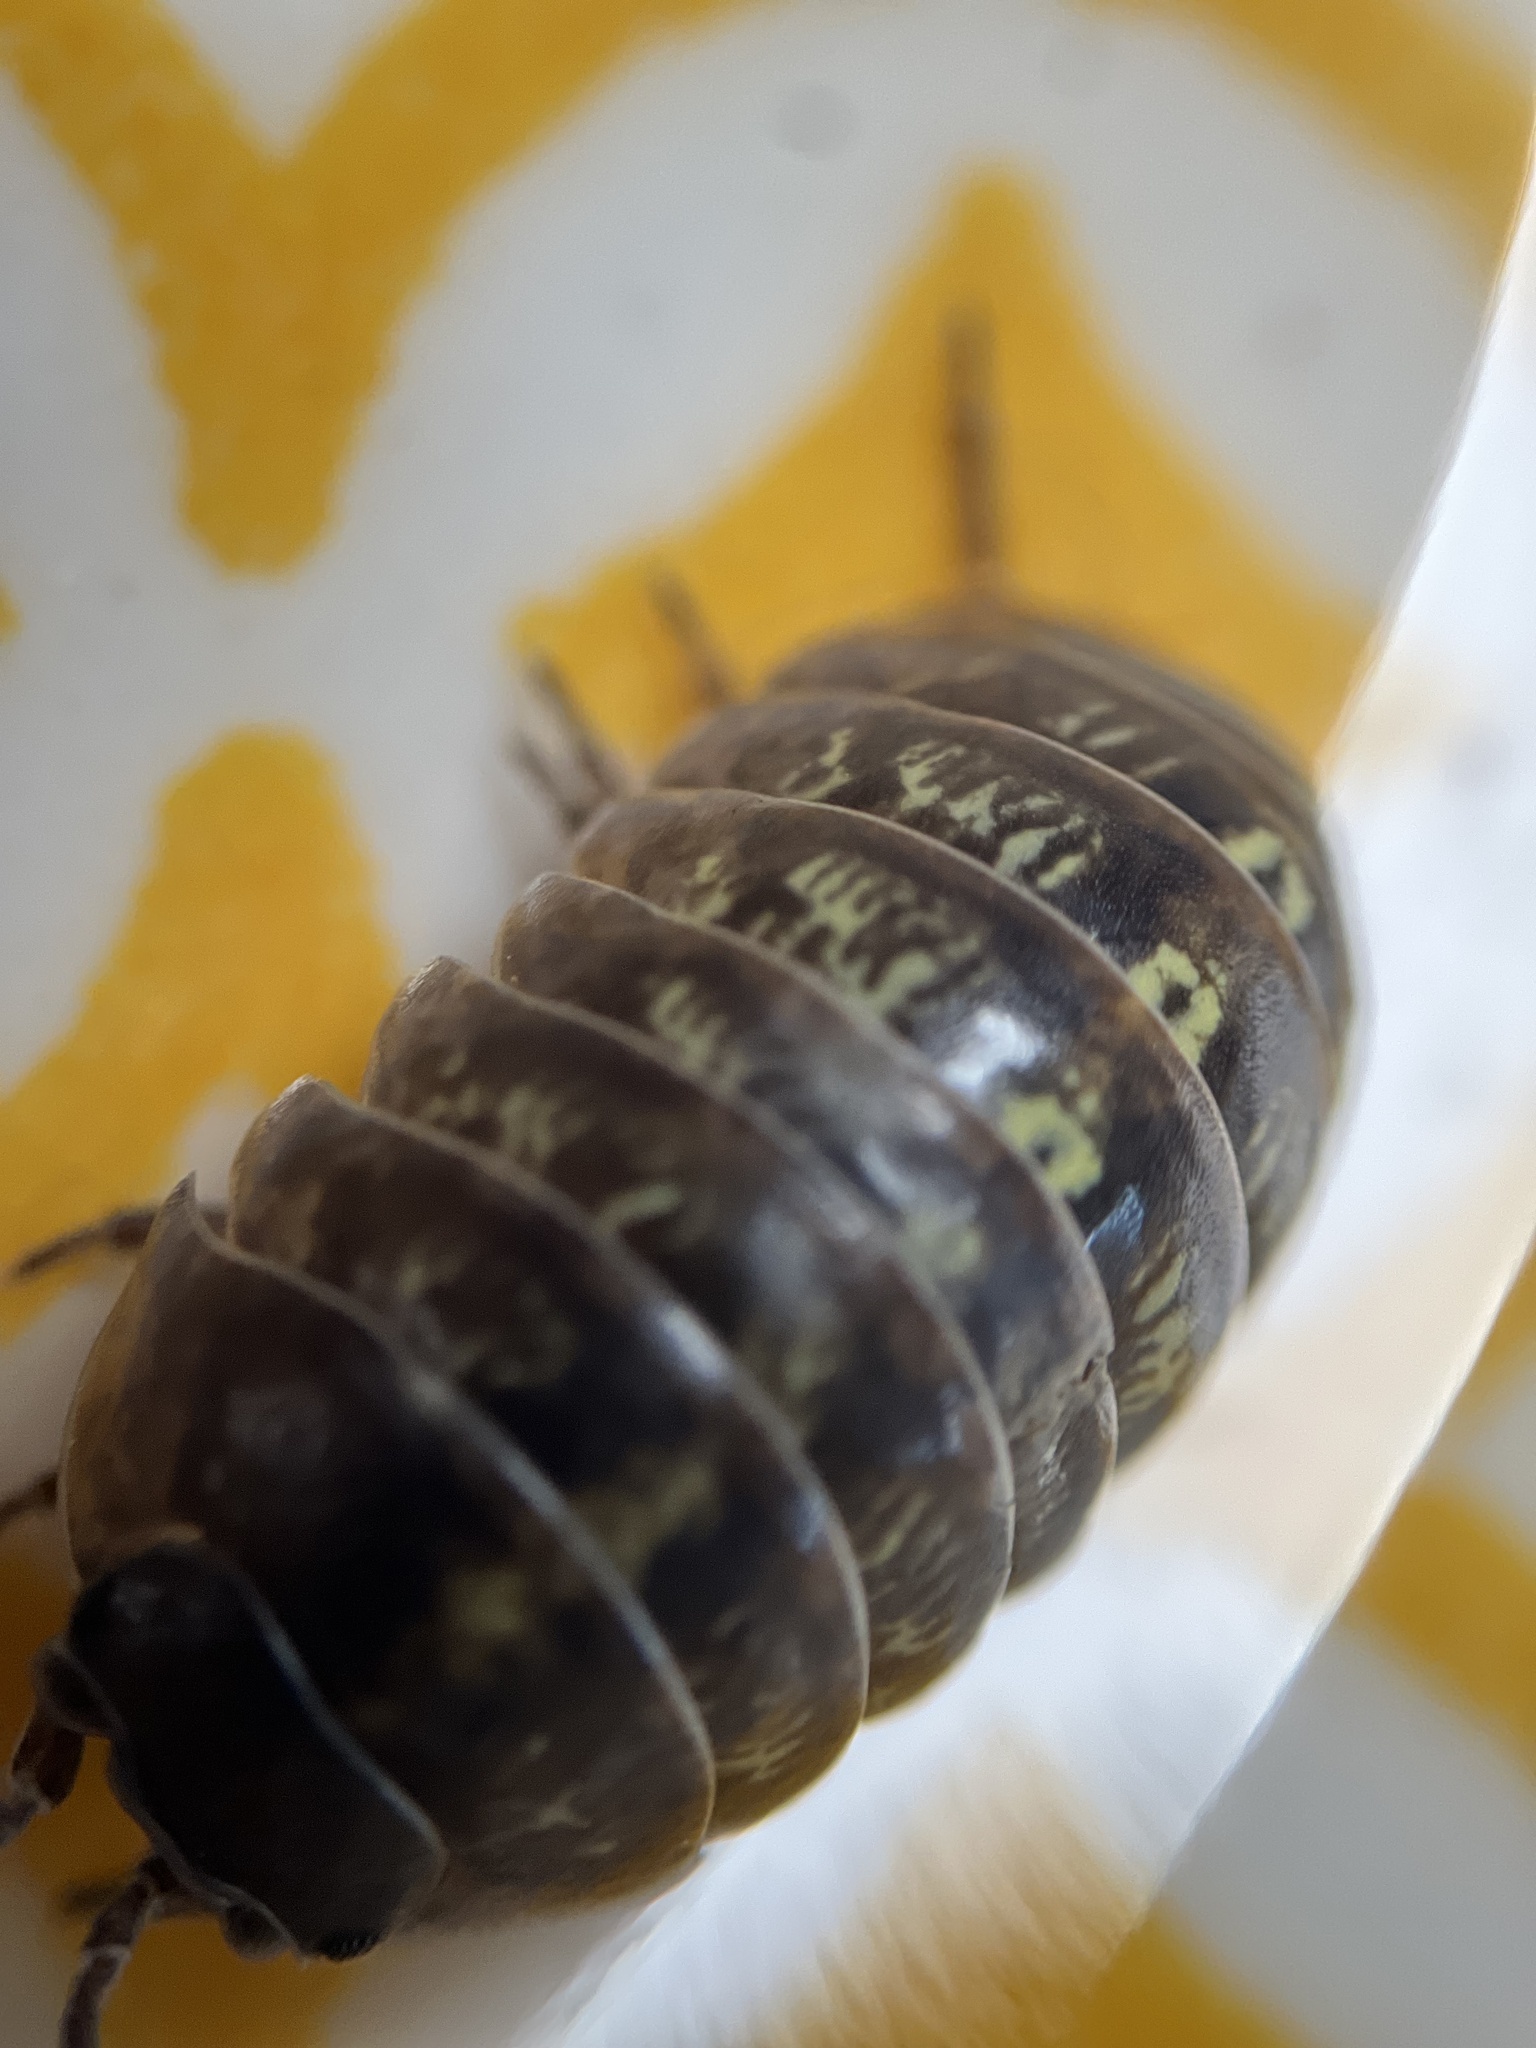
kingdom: Animalia
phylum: Arthropoda
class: Malacostraca
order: Isopoda
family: Armadillidiidae
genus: Armadillidium
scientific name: Armadillidium vulgare
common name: Common pill woodlouse
